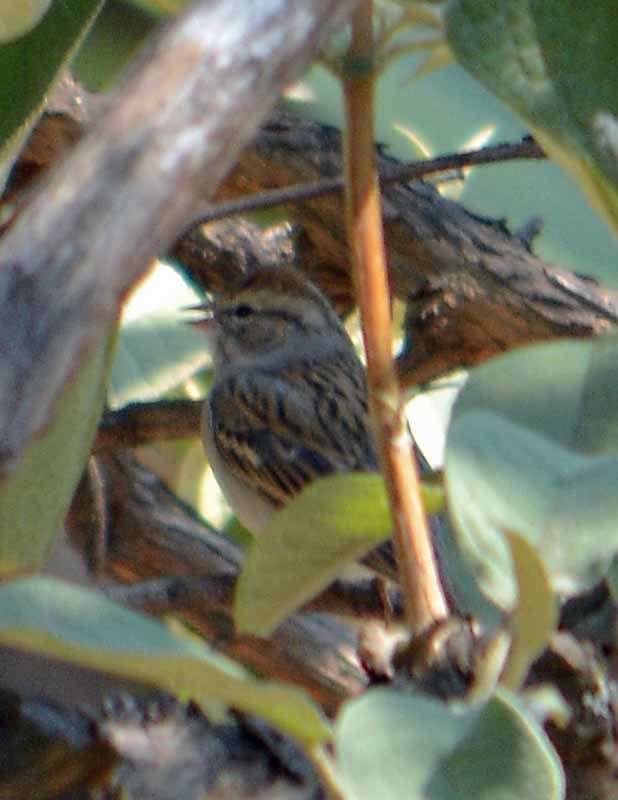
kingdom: Animalia
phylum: Chordata
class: Aves
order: Passeriformes
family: Passerellidae
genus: Spizella
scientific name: Spizella passerina
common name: Chipping sparrow
